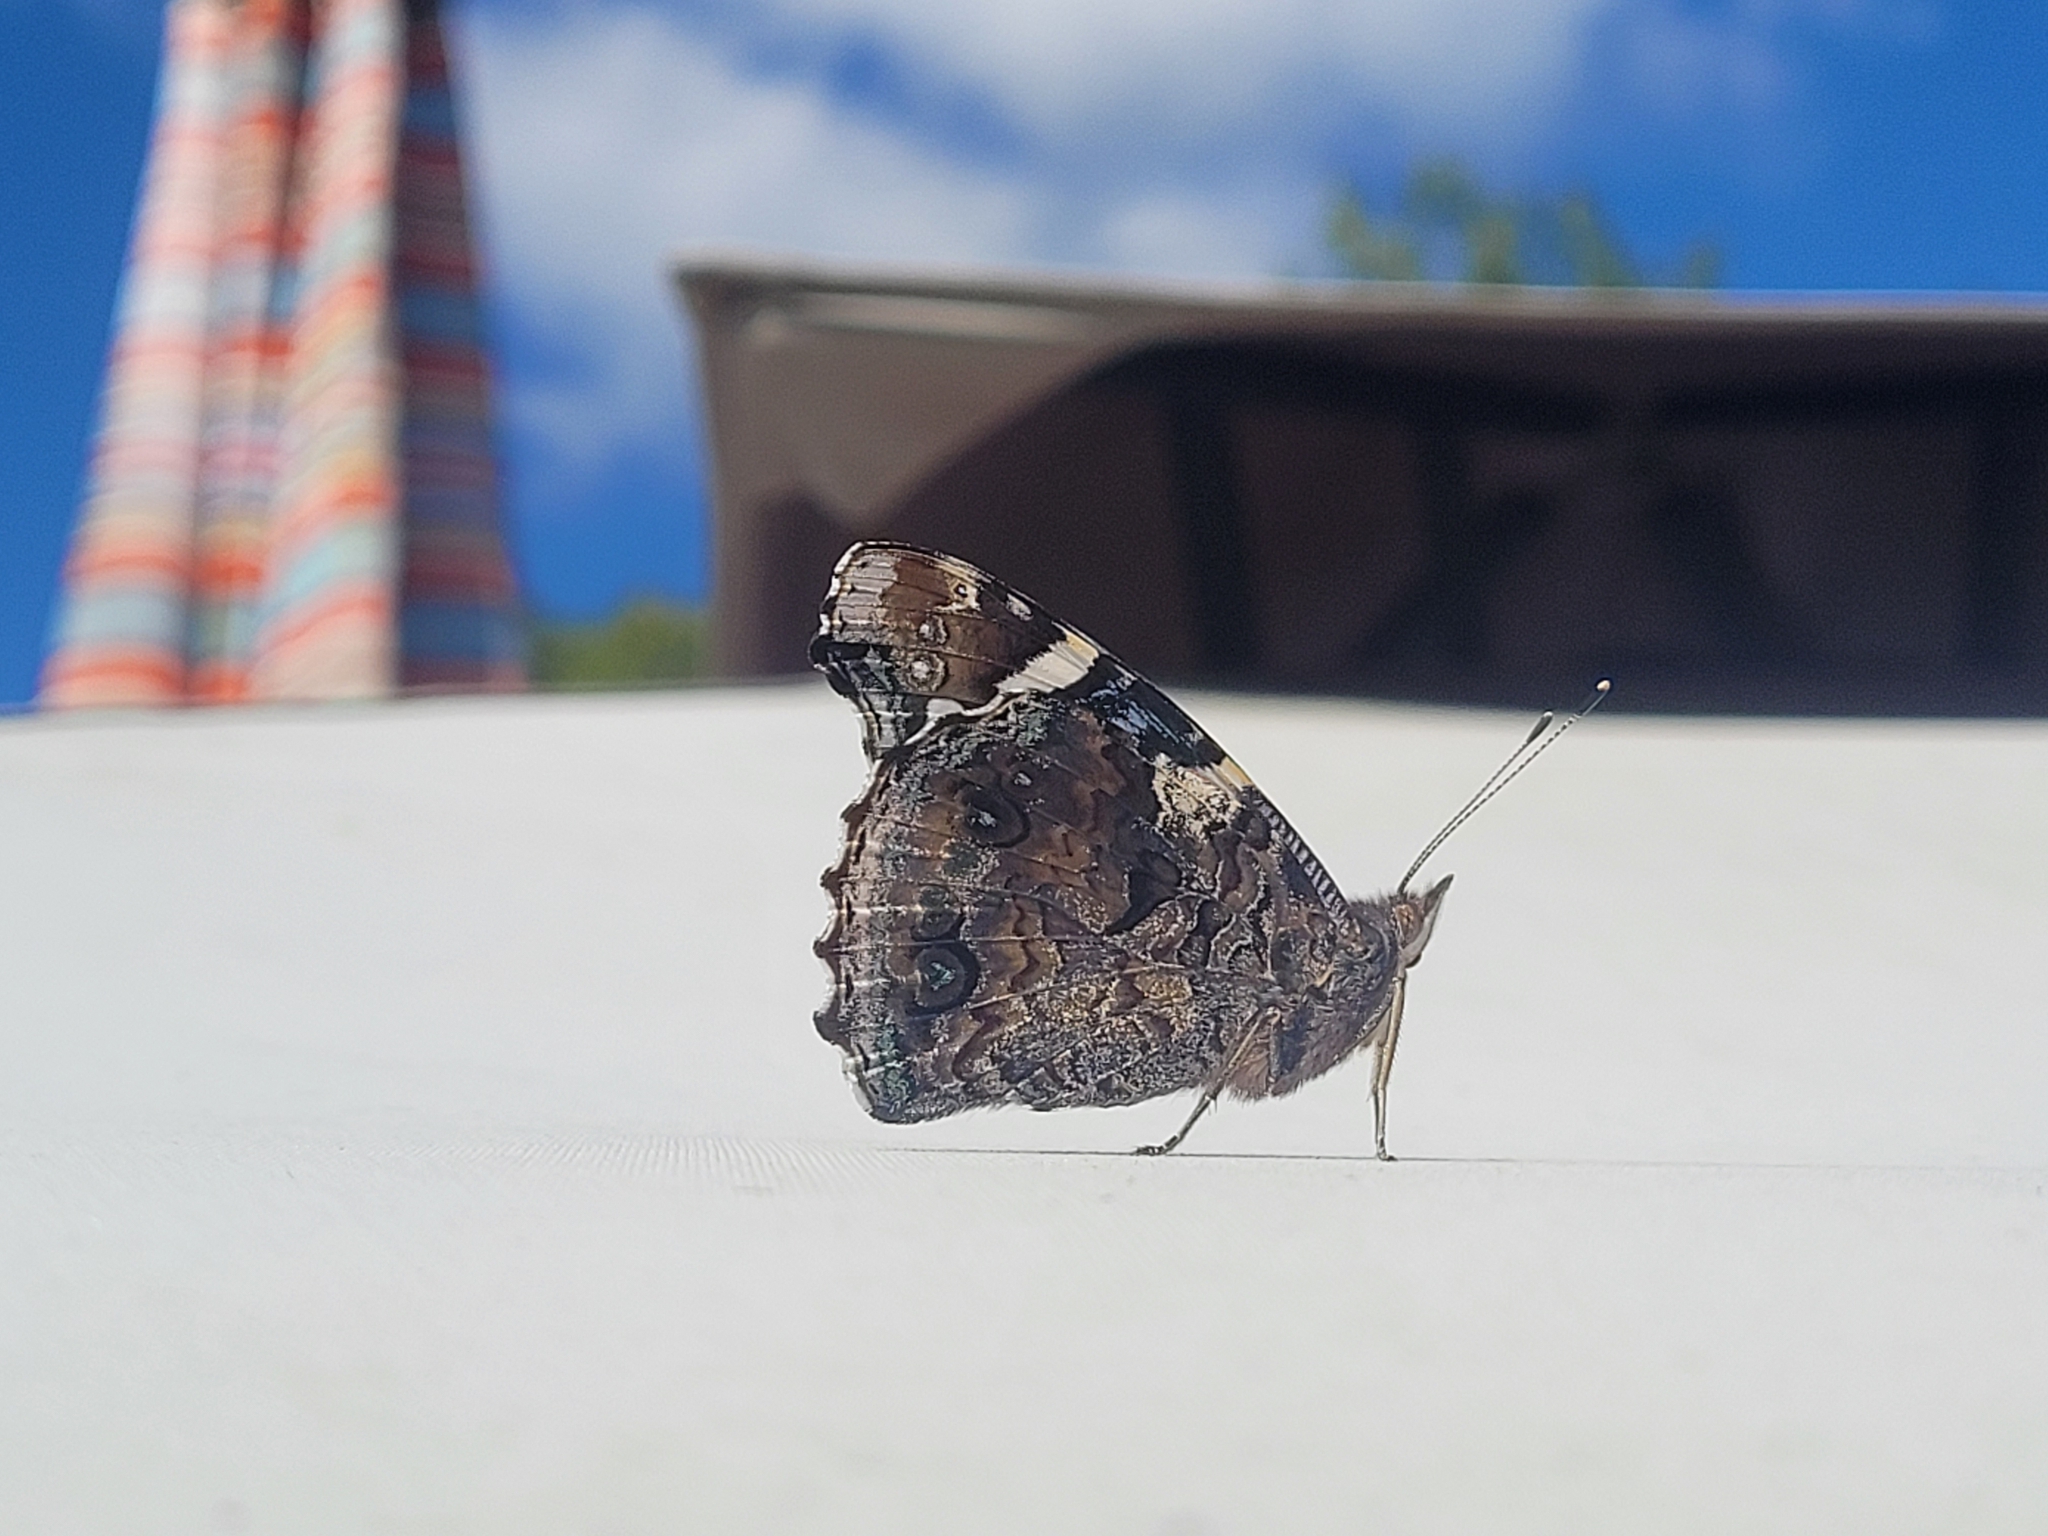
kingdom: Animalia
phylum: Arthropoda
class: Insecta
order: Lepidoptera
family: Nymphalidae
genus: Vanessa
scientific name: Vanessa atalanta
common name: Red admiral
